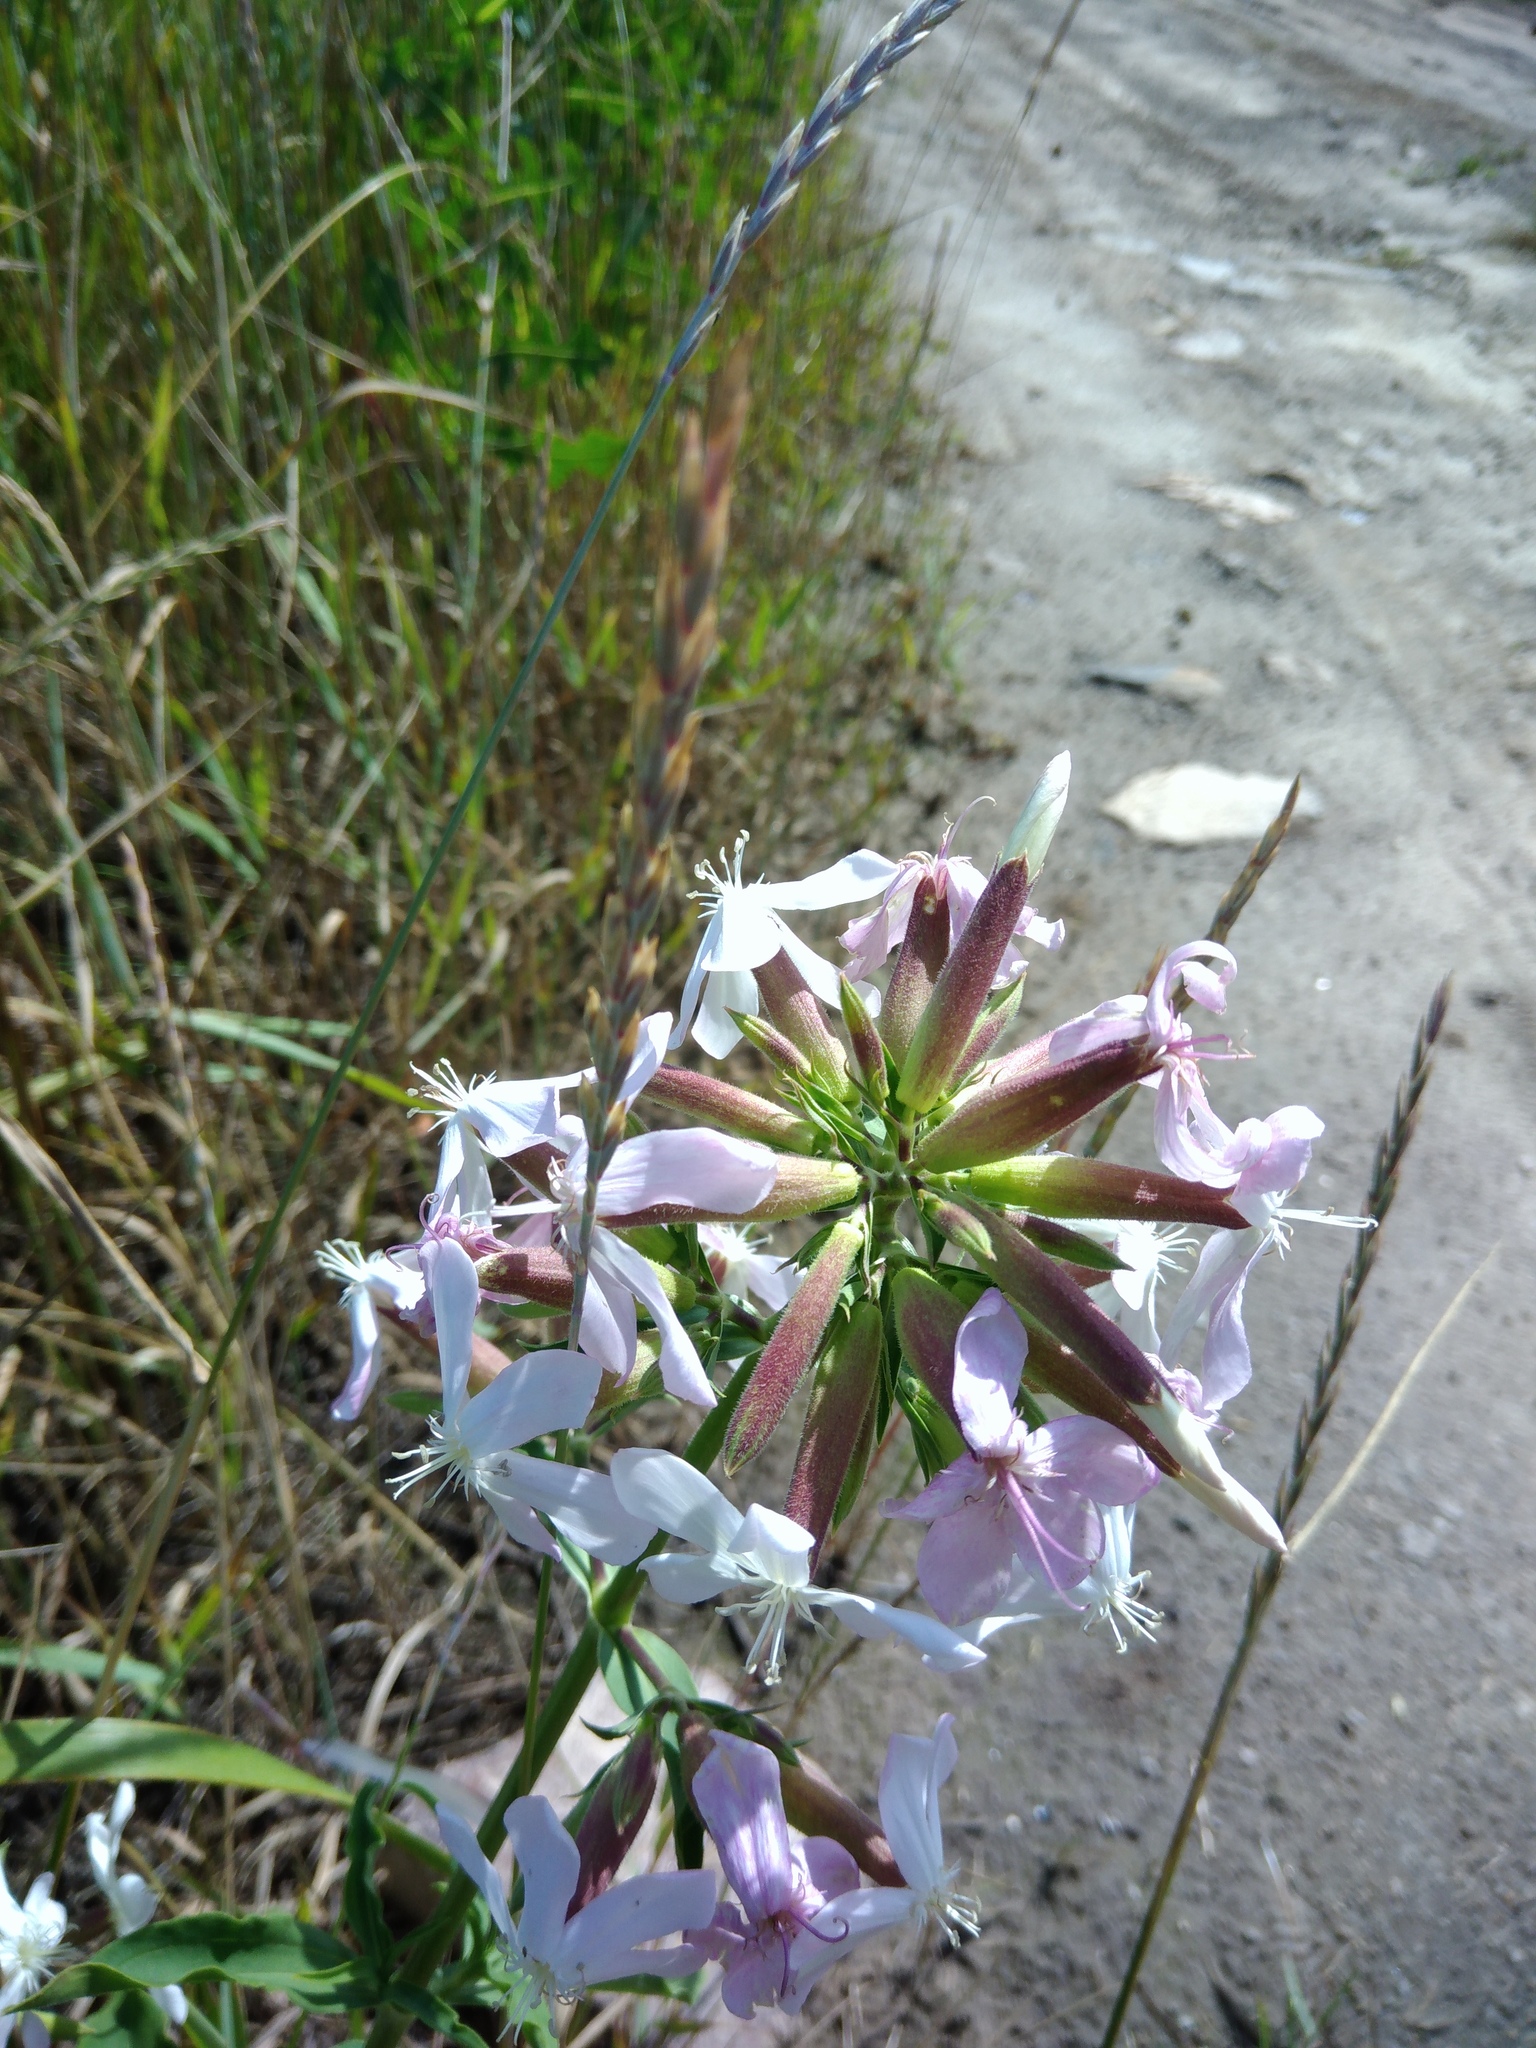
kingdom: Plantae
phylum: Tracheophyta
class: Magnoliopsida
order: Caryophyllales
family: Caryophyllaceae
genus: Saponaria
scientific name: Saponaria officinalis
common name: Soapwort
